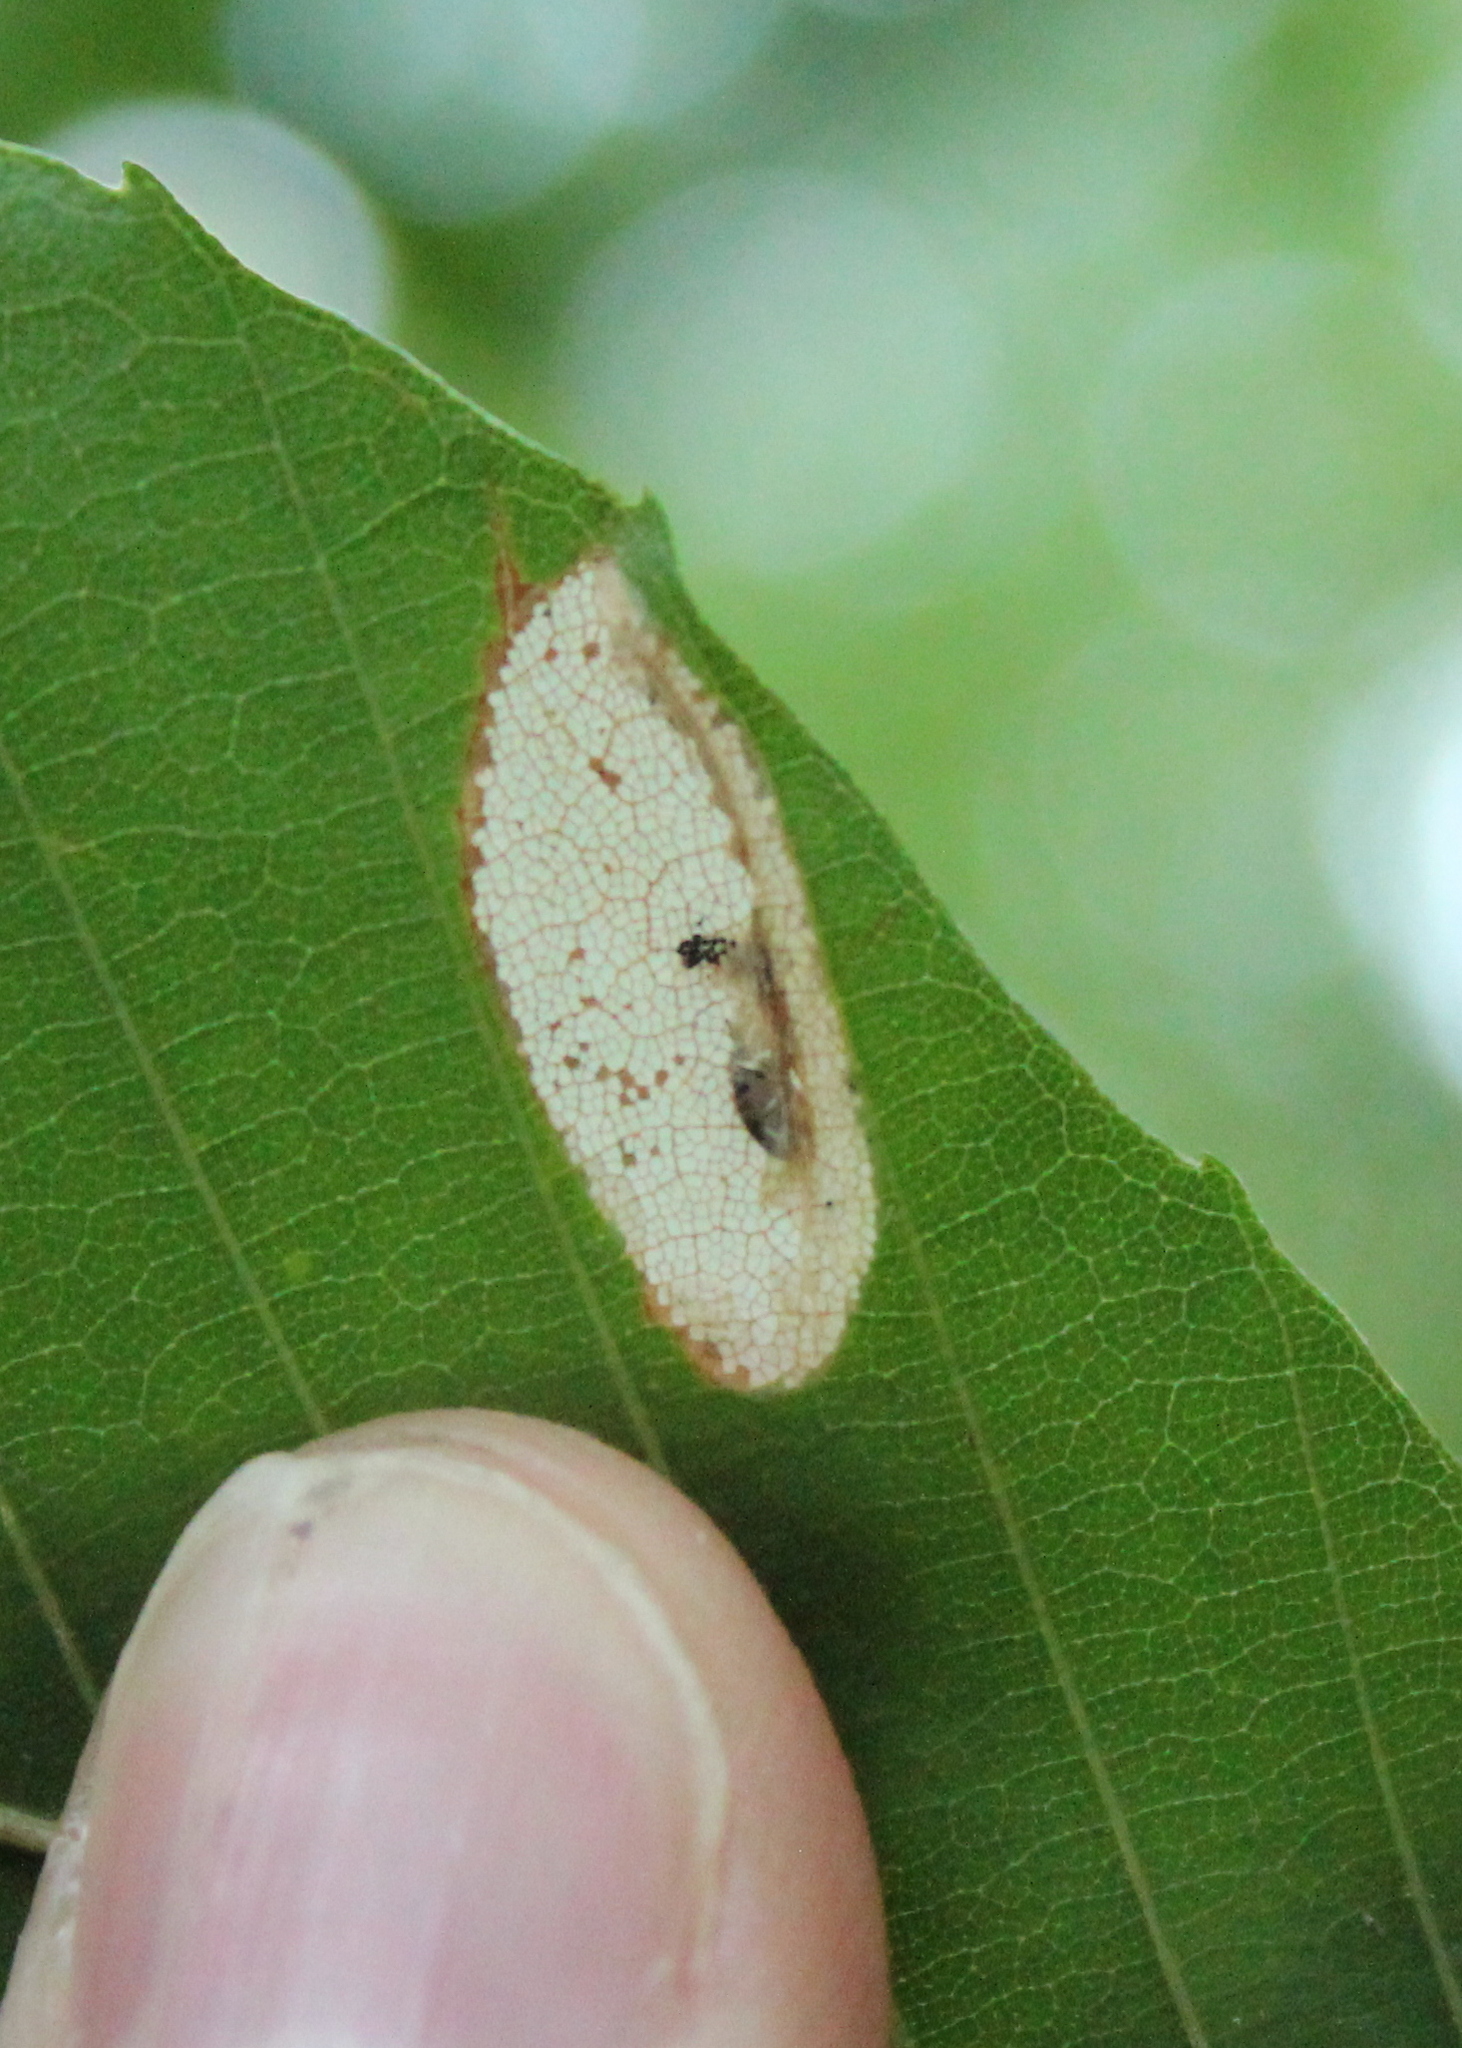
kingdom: Animalia
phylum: Arthropoda
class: Insecta
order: Lepidoptera
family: Gracillariidae
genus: Phyllonorycter
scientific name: Phyllonorycter maestingella
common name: Beech midget
